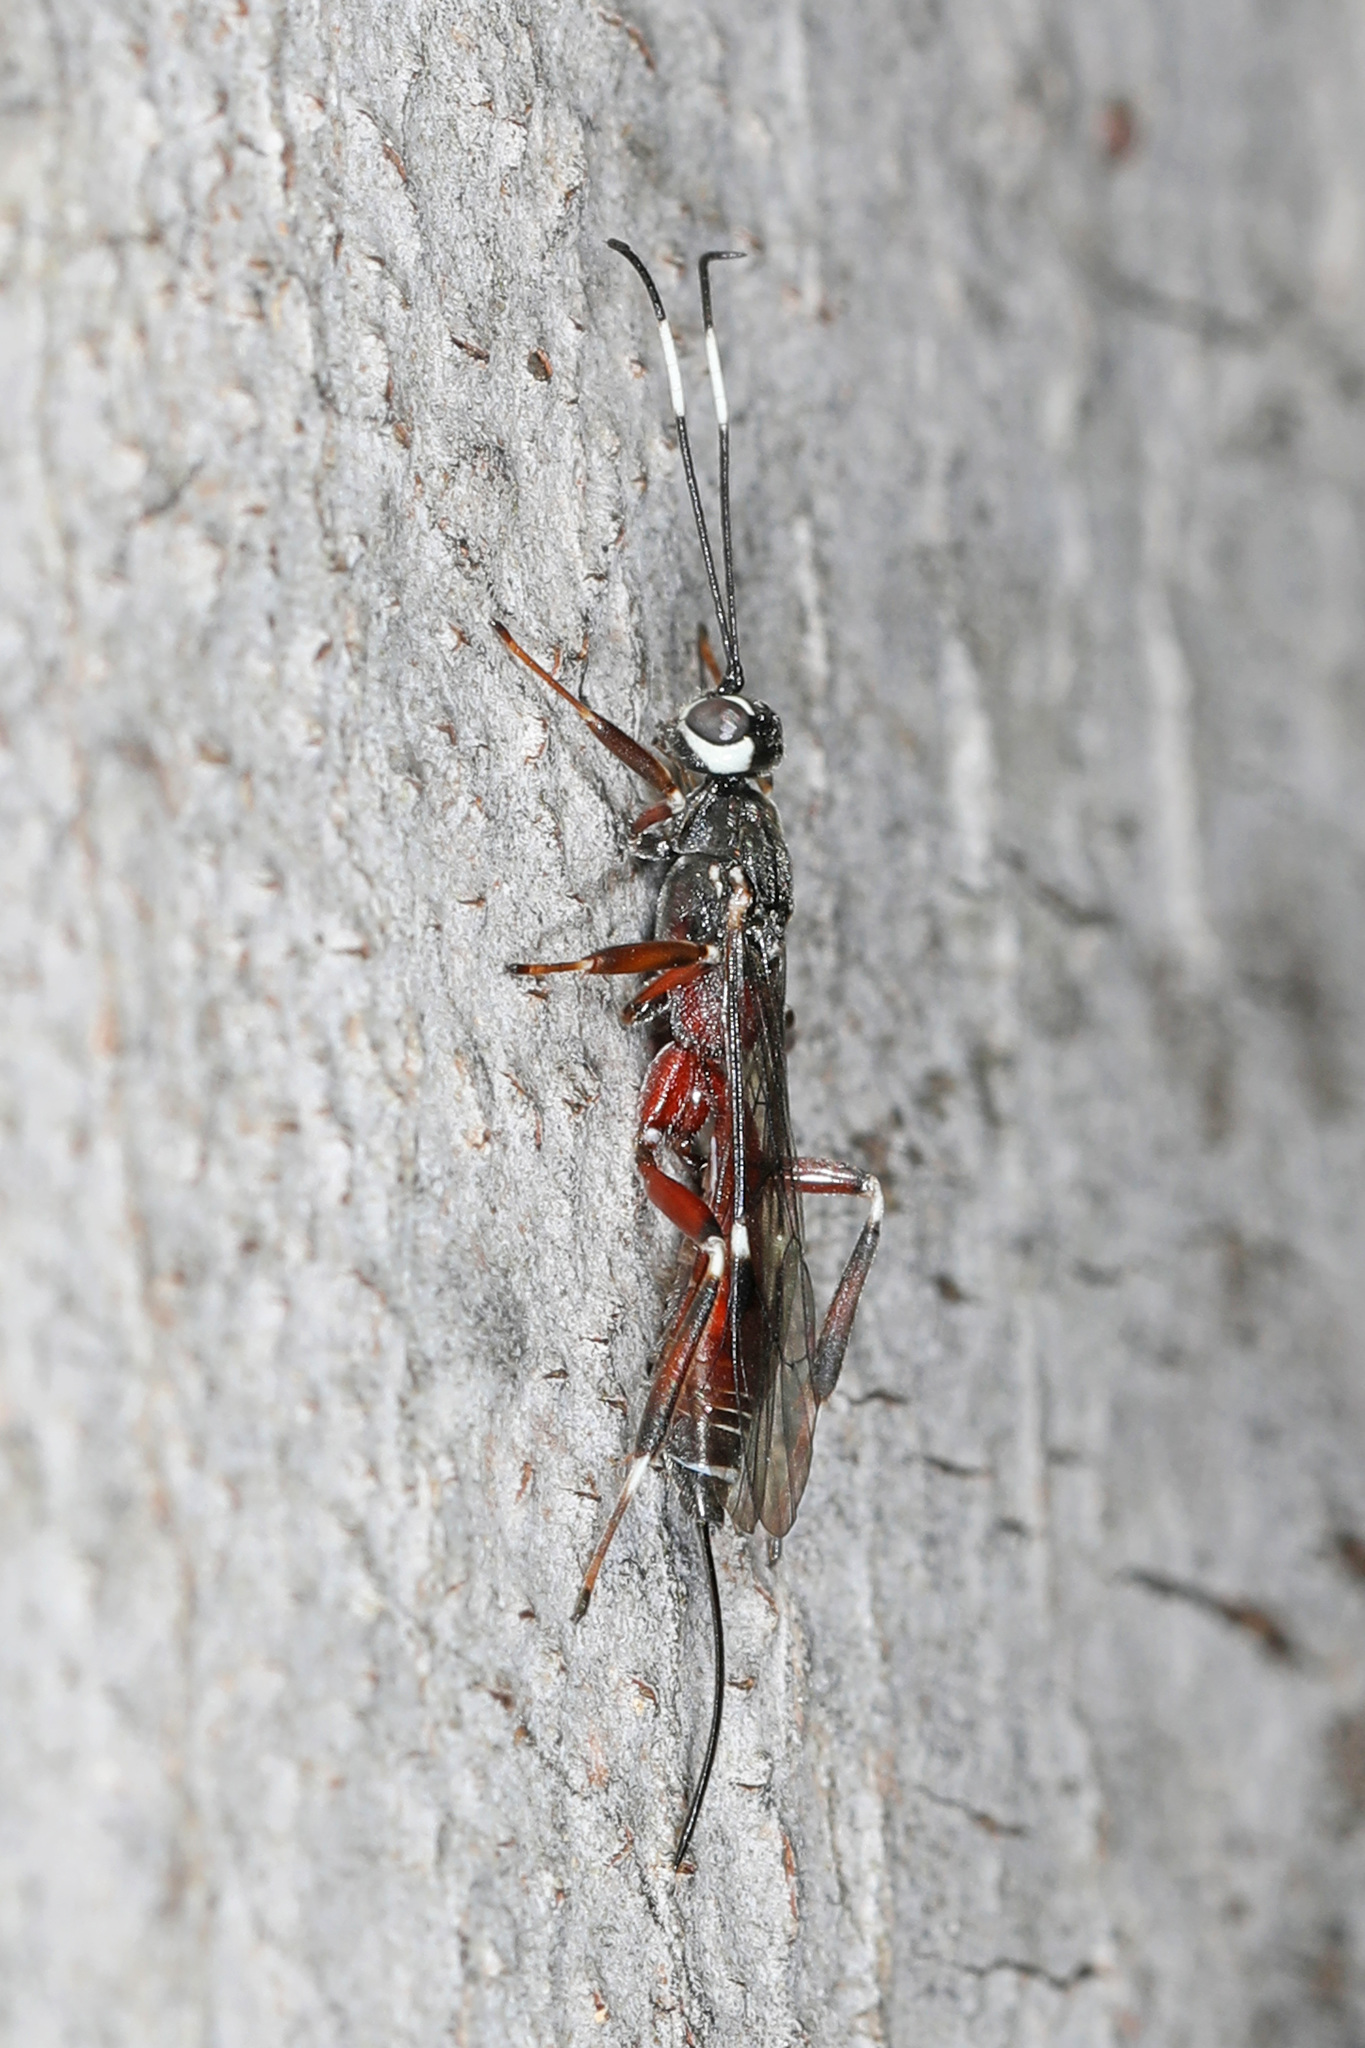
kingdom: Animalia
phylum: Arthropoda
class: Insecta
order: Hymenoptera
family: Ichneumonidae
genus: Xorides
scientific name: Xorides calidus
